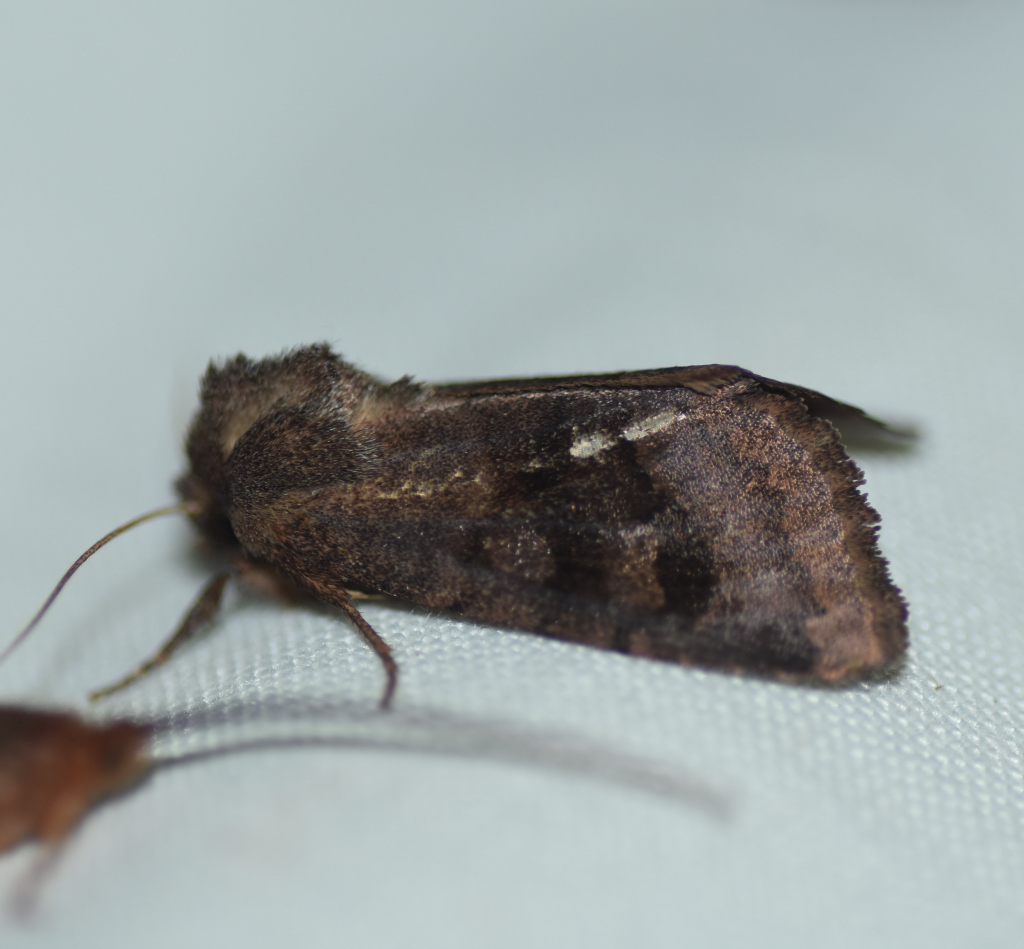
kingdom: Animalia
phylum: Arthropoda
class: Insecta
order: Lepidoptera
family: Noctuidae
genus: Nephelodes
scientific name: Nephelodes minians
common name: Bronzed cutworm
